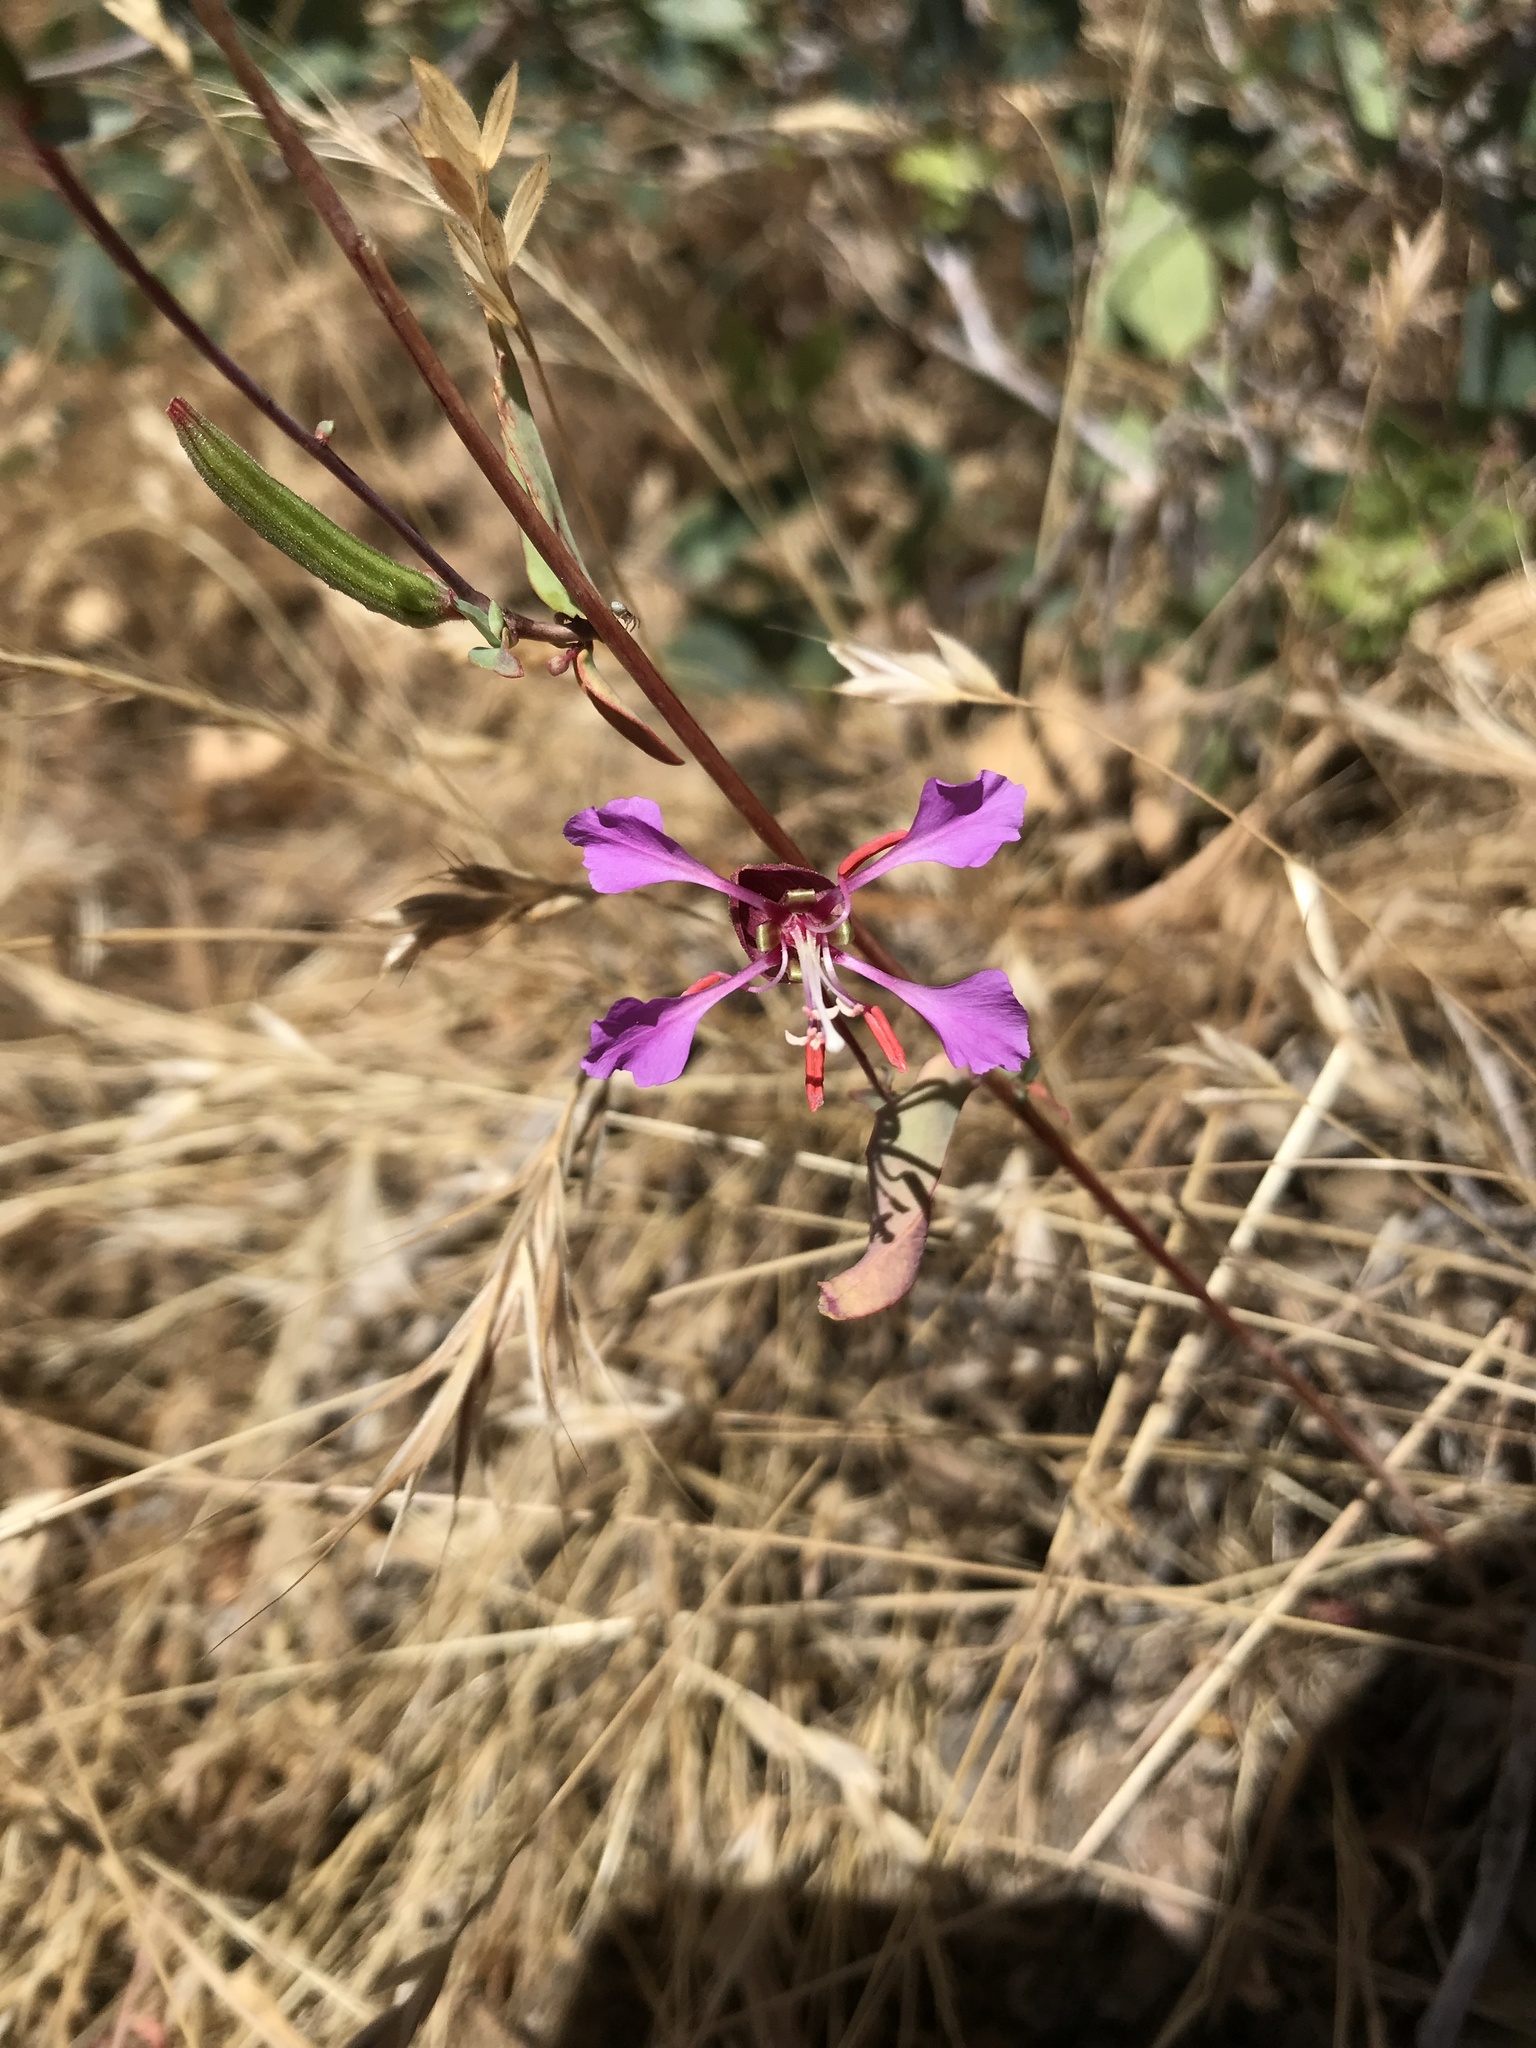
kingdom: Plantae
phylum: Tracheophyta
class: Magnoliopsida
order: Myrtales
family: Onagraceae
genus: Clarkia
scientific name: Clarkia unguiculata
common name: Clarkia
